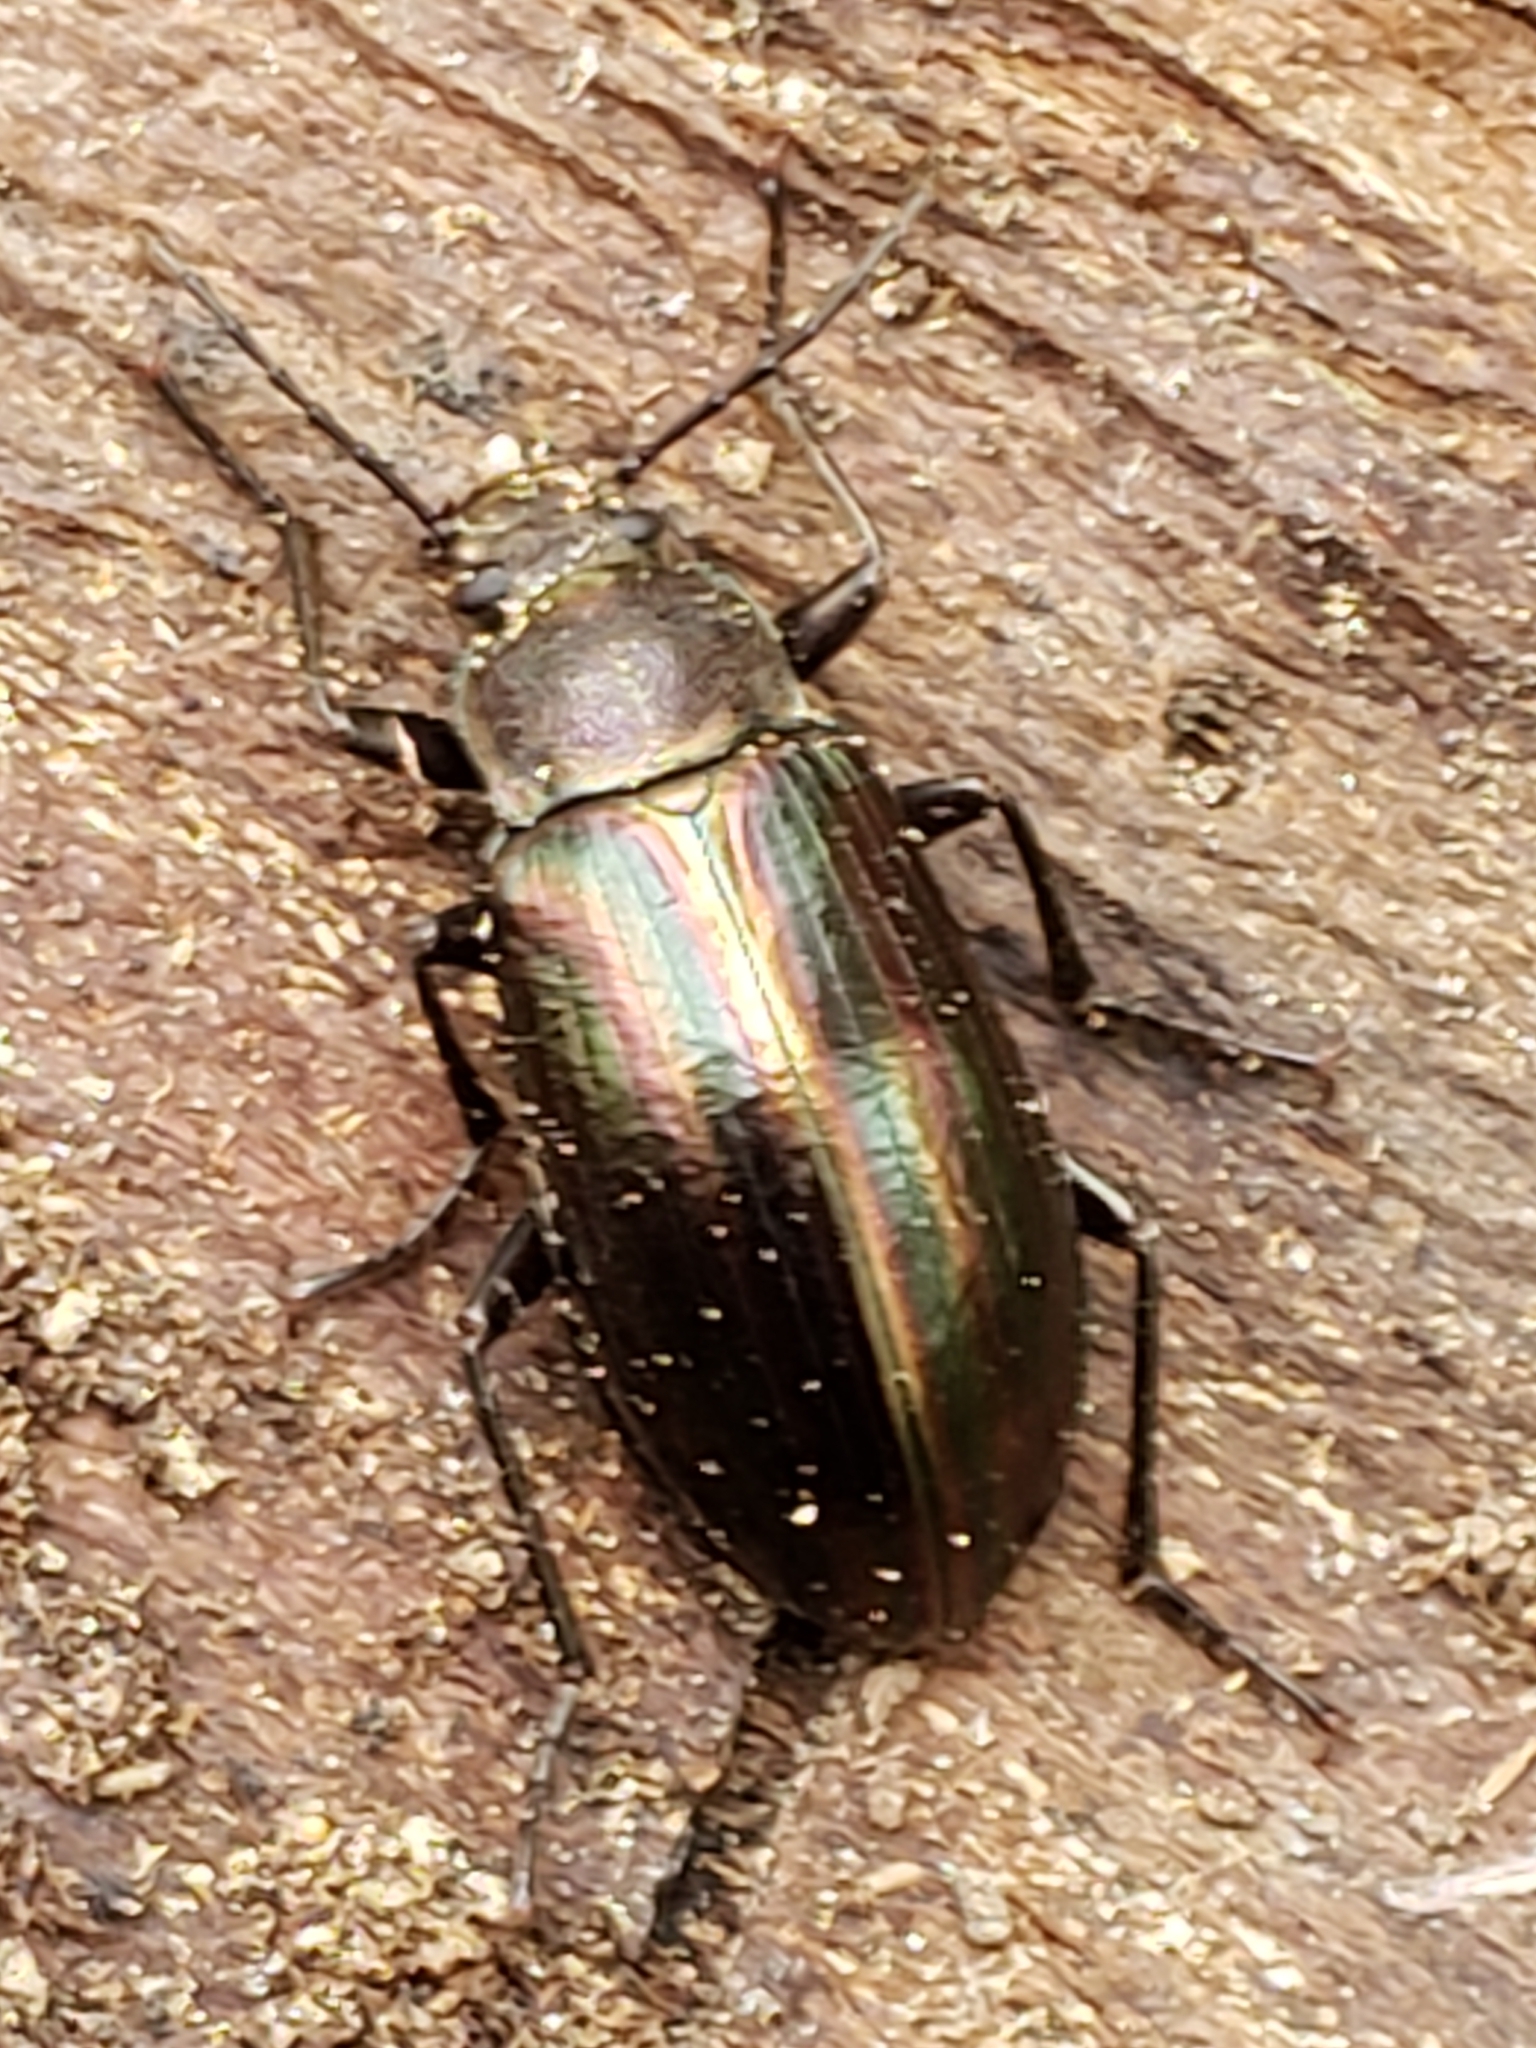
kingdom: Animalia
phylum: Arthropoda
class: Insecta
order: Coleoptera
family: Tenebrionidae
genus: Tarpela
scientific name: Tarpela micans
